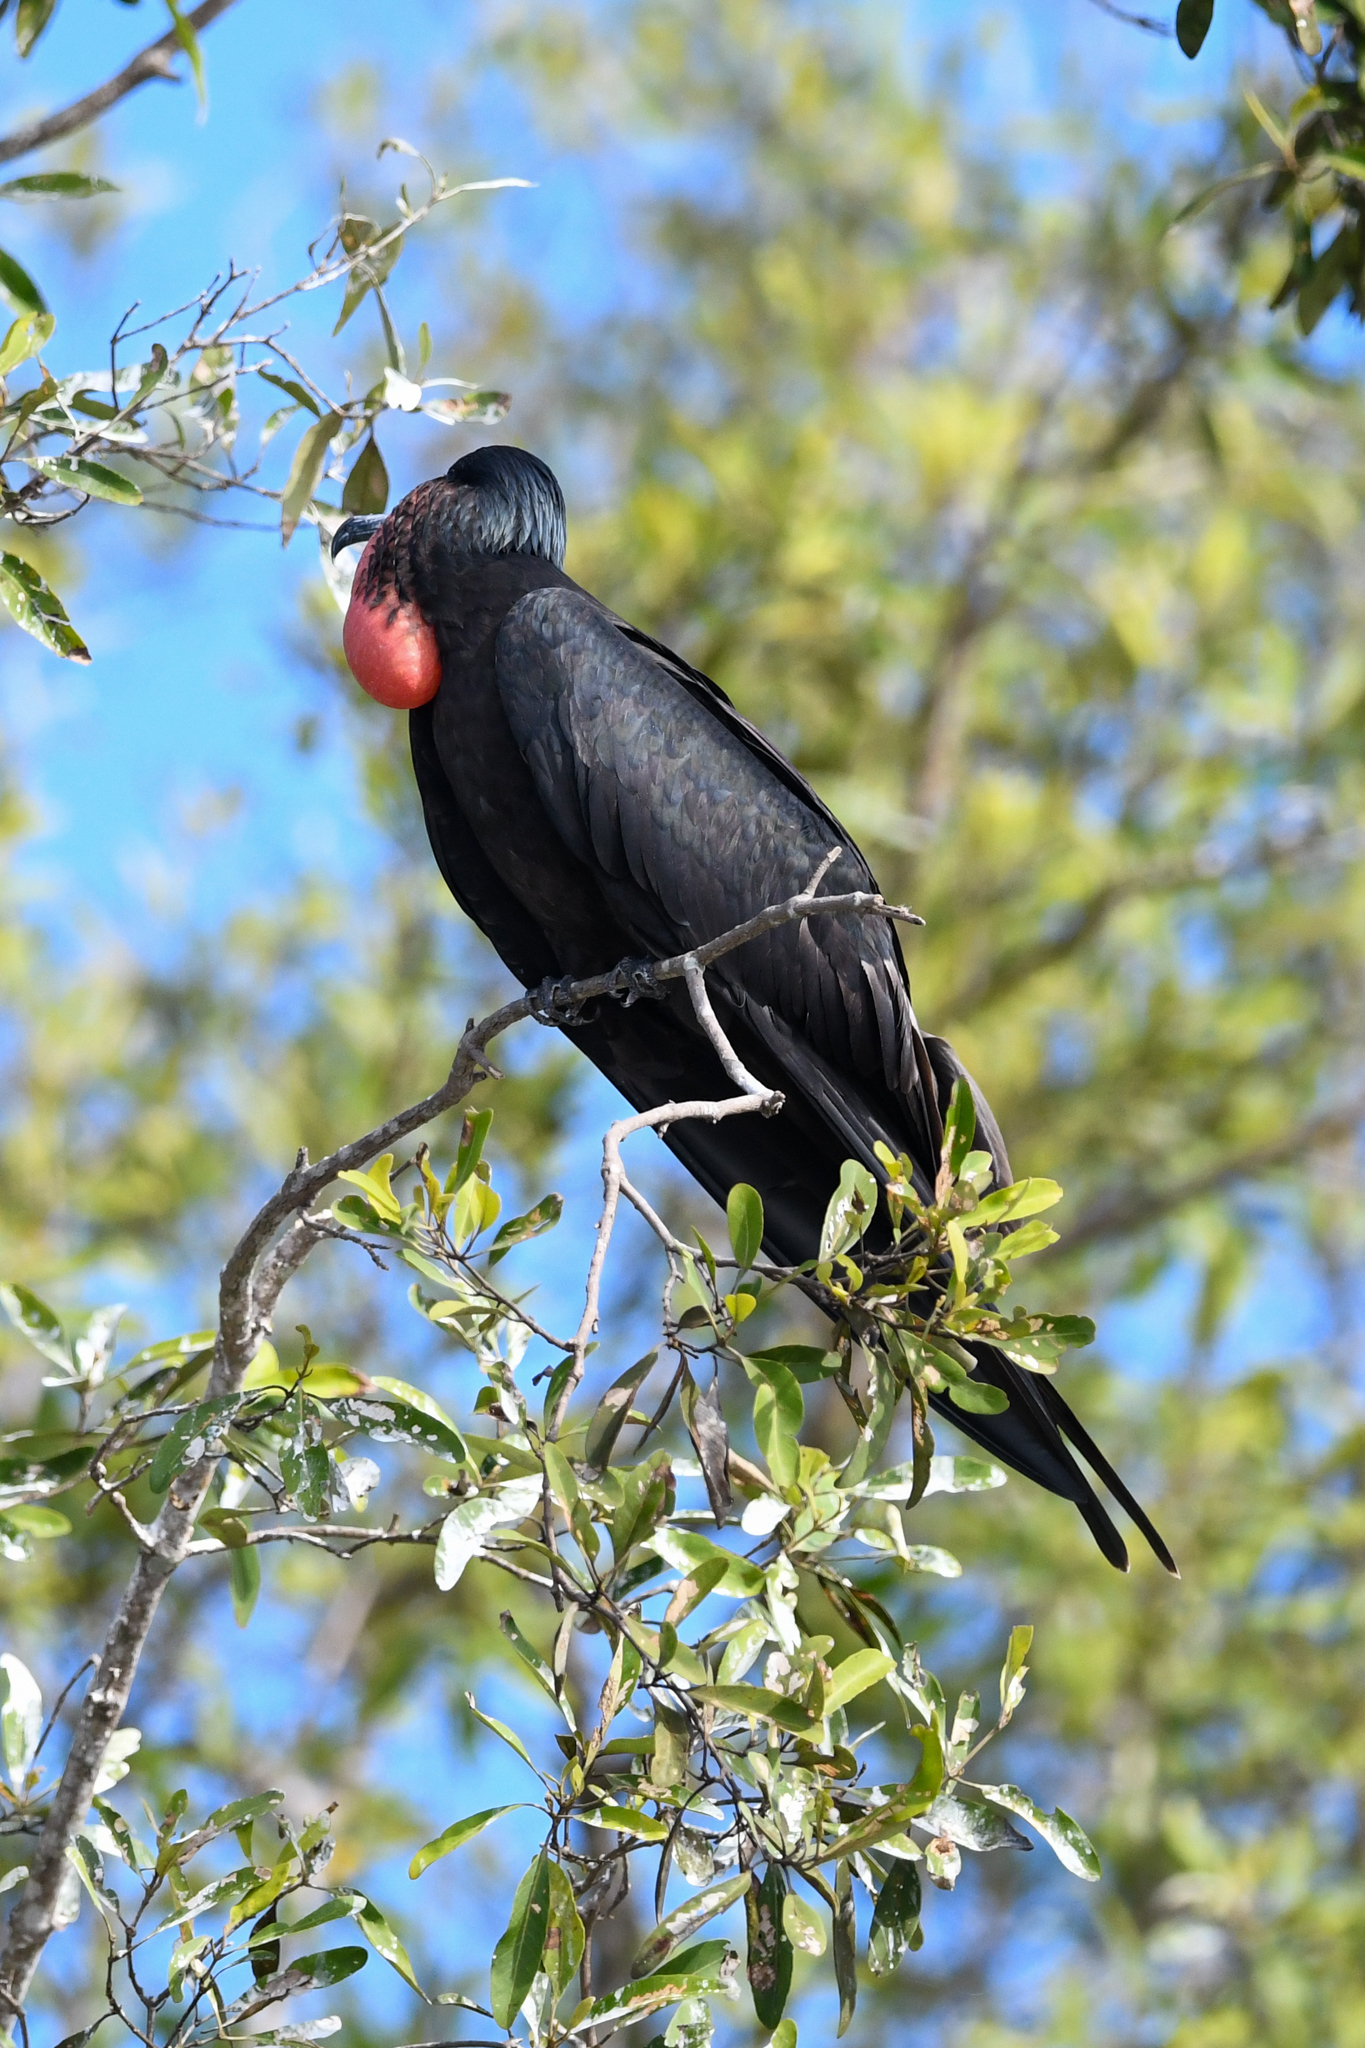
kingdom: Animalia
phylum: Chordata
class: Aves
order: Suliformes
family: Fregatidae
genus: Fregata
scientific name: Fregata magnificens
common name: Magnificent frigatebird
